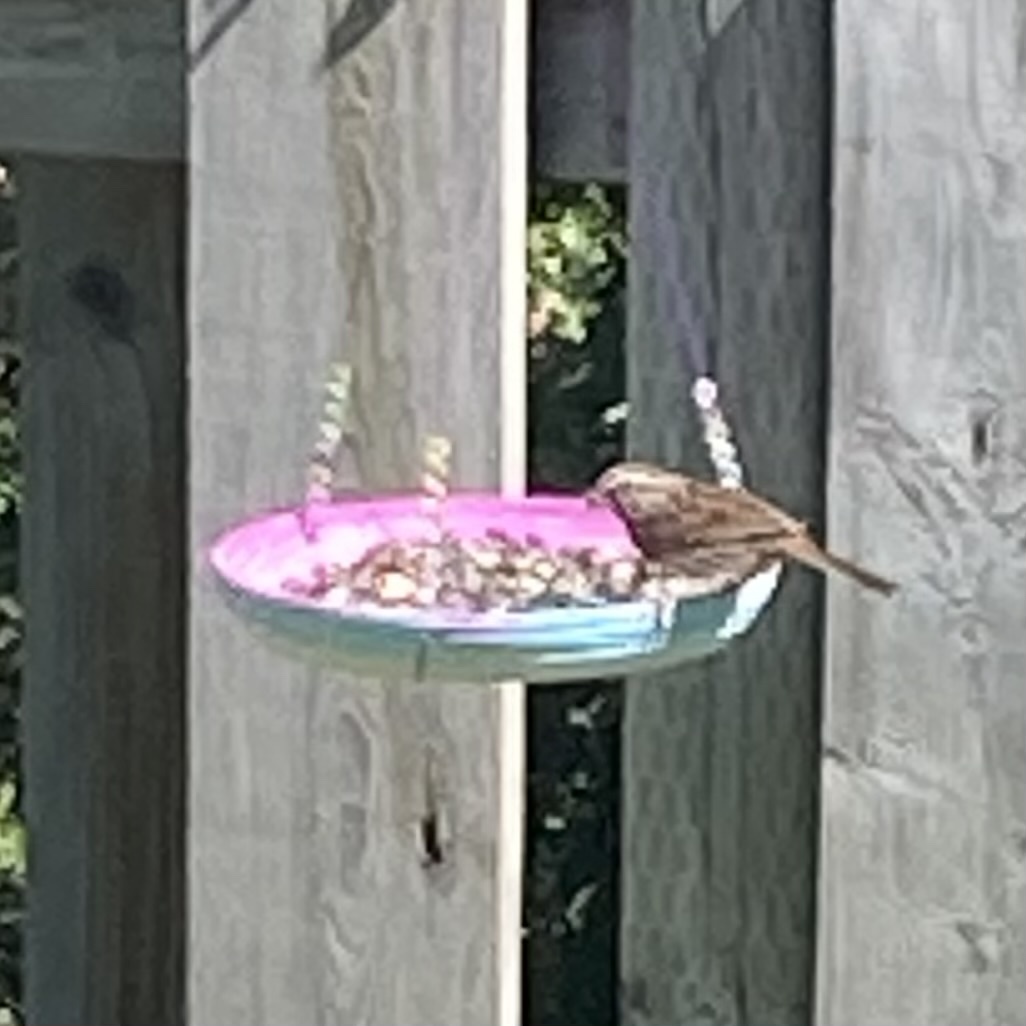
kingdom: Animalia
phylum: Chordata
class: Aves
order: Passeriformes
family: Passerellidae
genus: Melospiza
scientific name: Melospiza melodia
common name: Song sparrow
